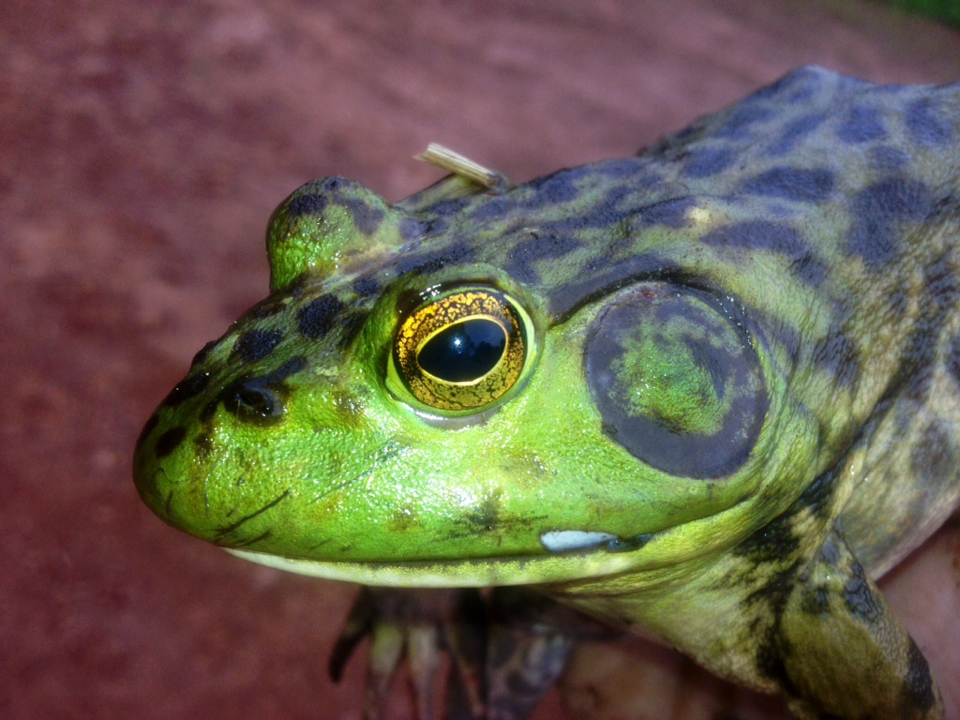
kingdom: Animalia
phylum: Chordata
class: Amphibia
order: Anura
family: Ranidae
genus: Lithobates
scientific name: Lithobates catesbeianus
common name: American bullfrog
